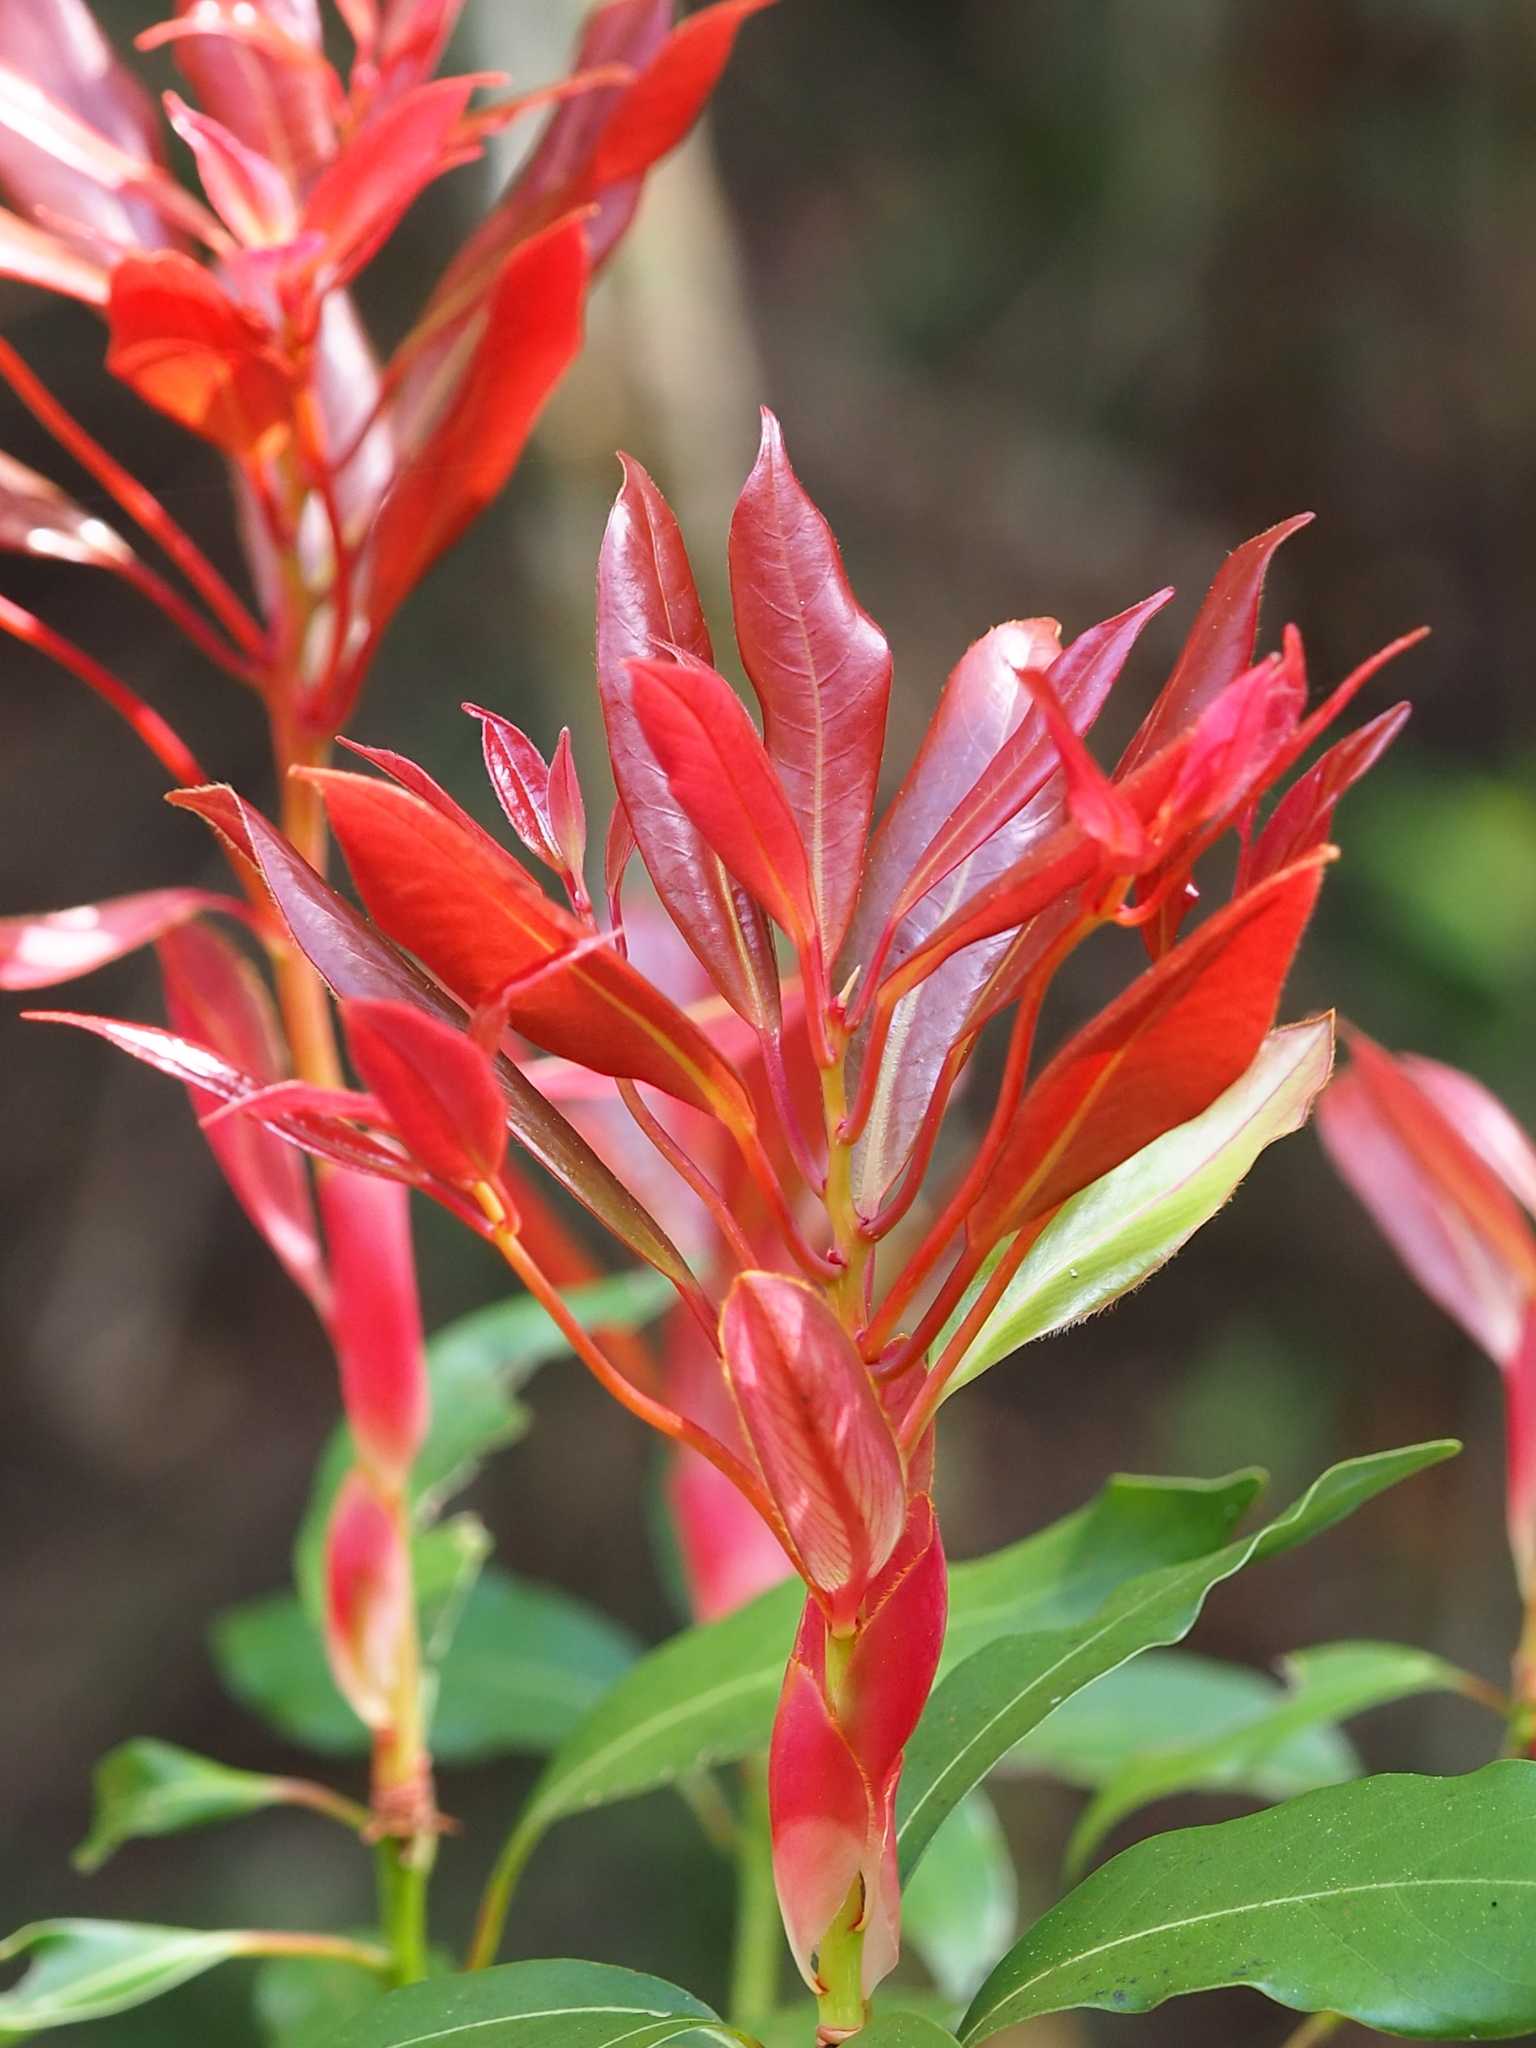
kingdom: Plantae
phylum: Tracheophyta
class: Magnoliopsida
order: Laurales
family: Lauraceae
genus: Machilus
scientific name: Machilus thunbergii
